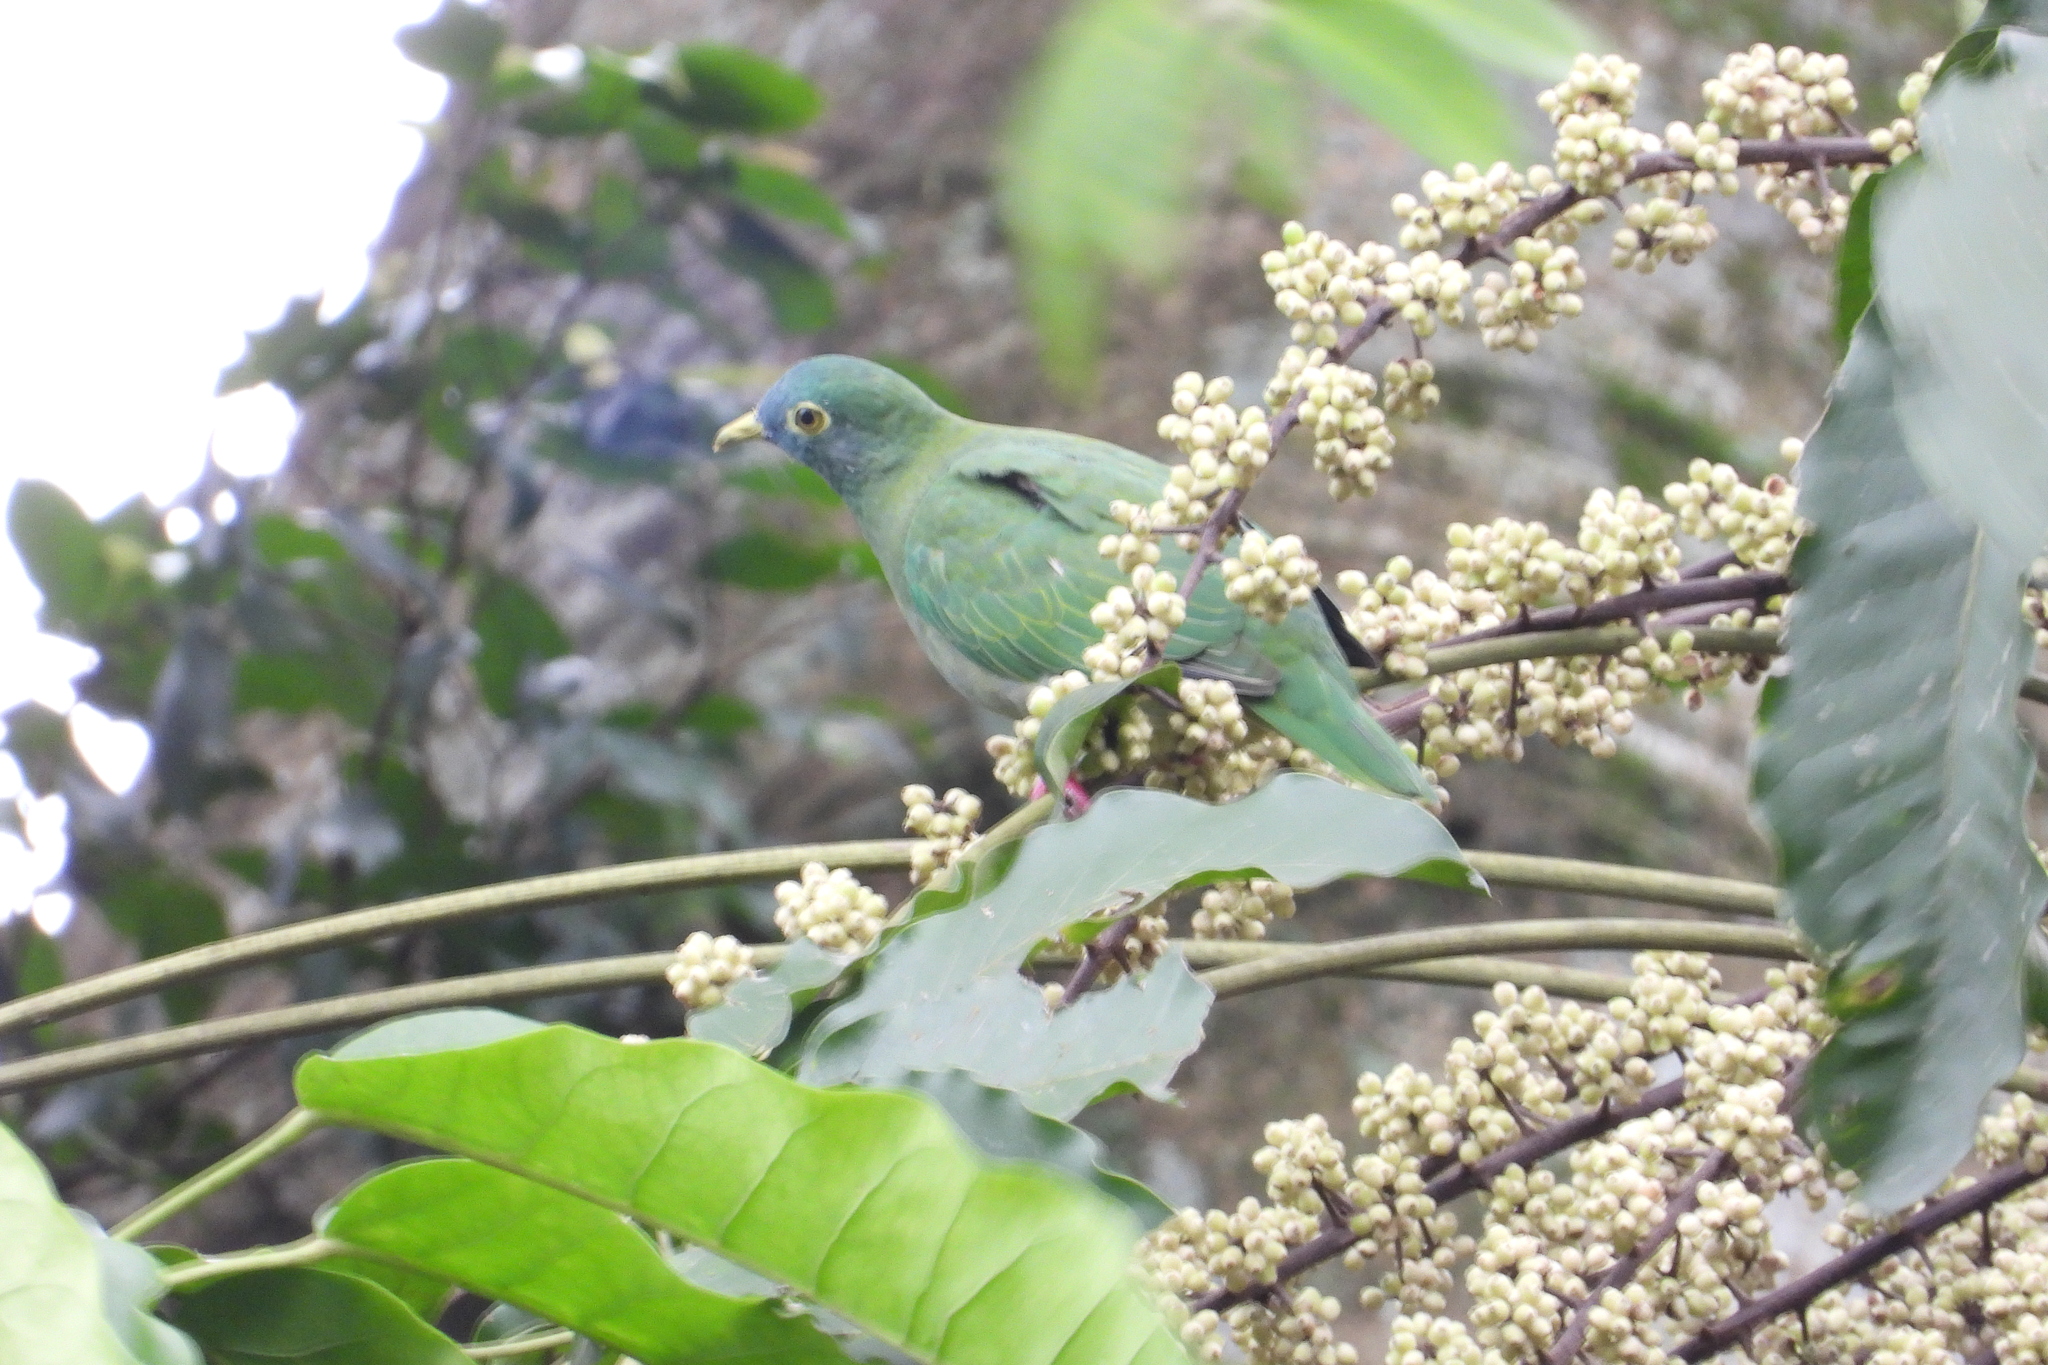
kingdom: Animalia
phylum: Chordata
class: Aves
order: Columbiformes
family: Columbidae
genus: Ptilinopus
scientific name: Ptilinopus melanospilus
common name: Black-naped fruit dove
